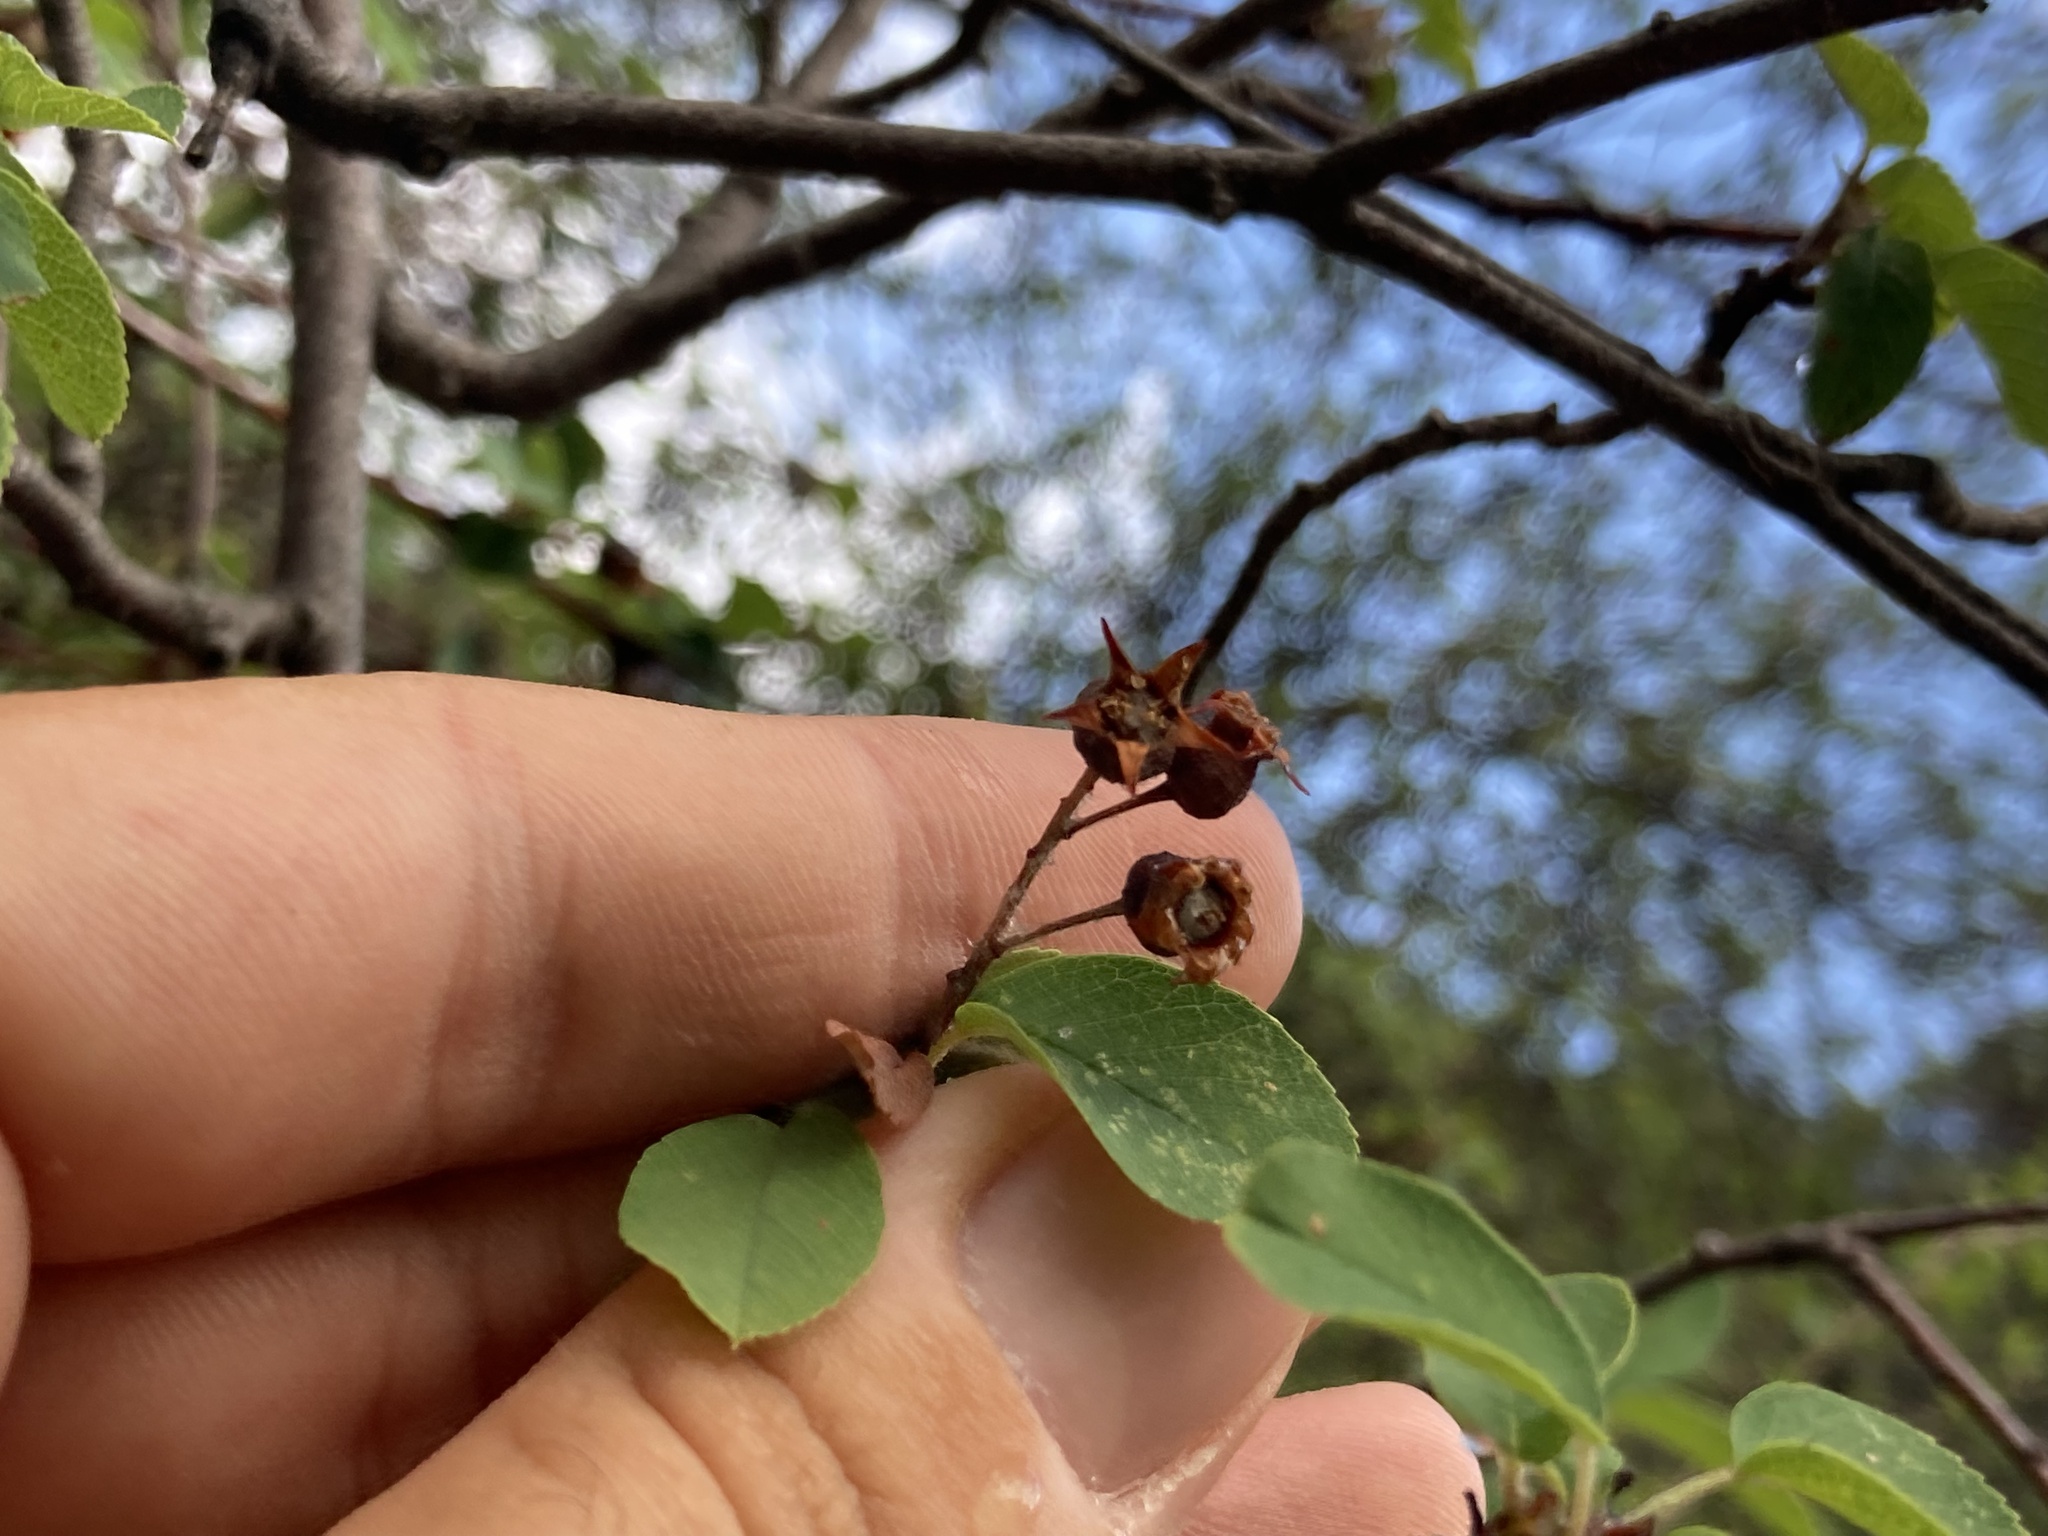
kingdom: Plantae
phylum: Tracheophyta
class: Magnoliopsida
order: Rosales
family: Rosaceae
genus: Amelanchier
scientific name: Amelanchier ovalis
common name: Serviceberry
